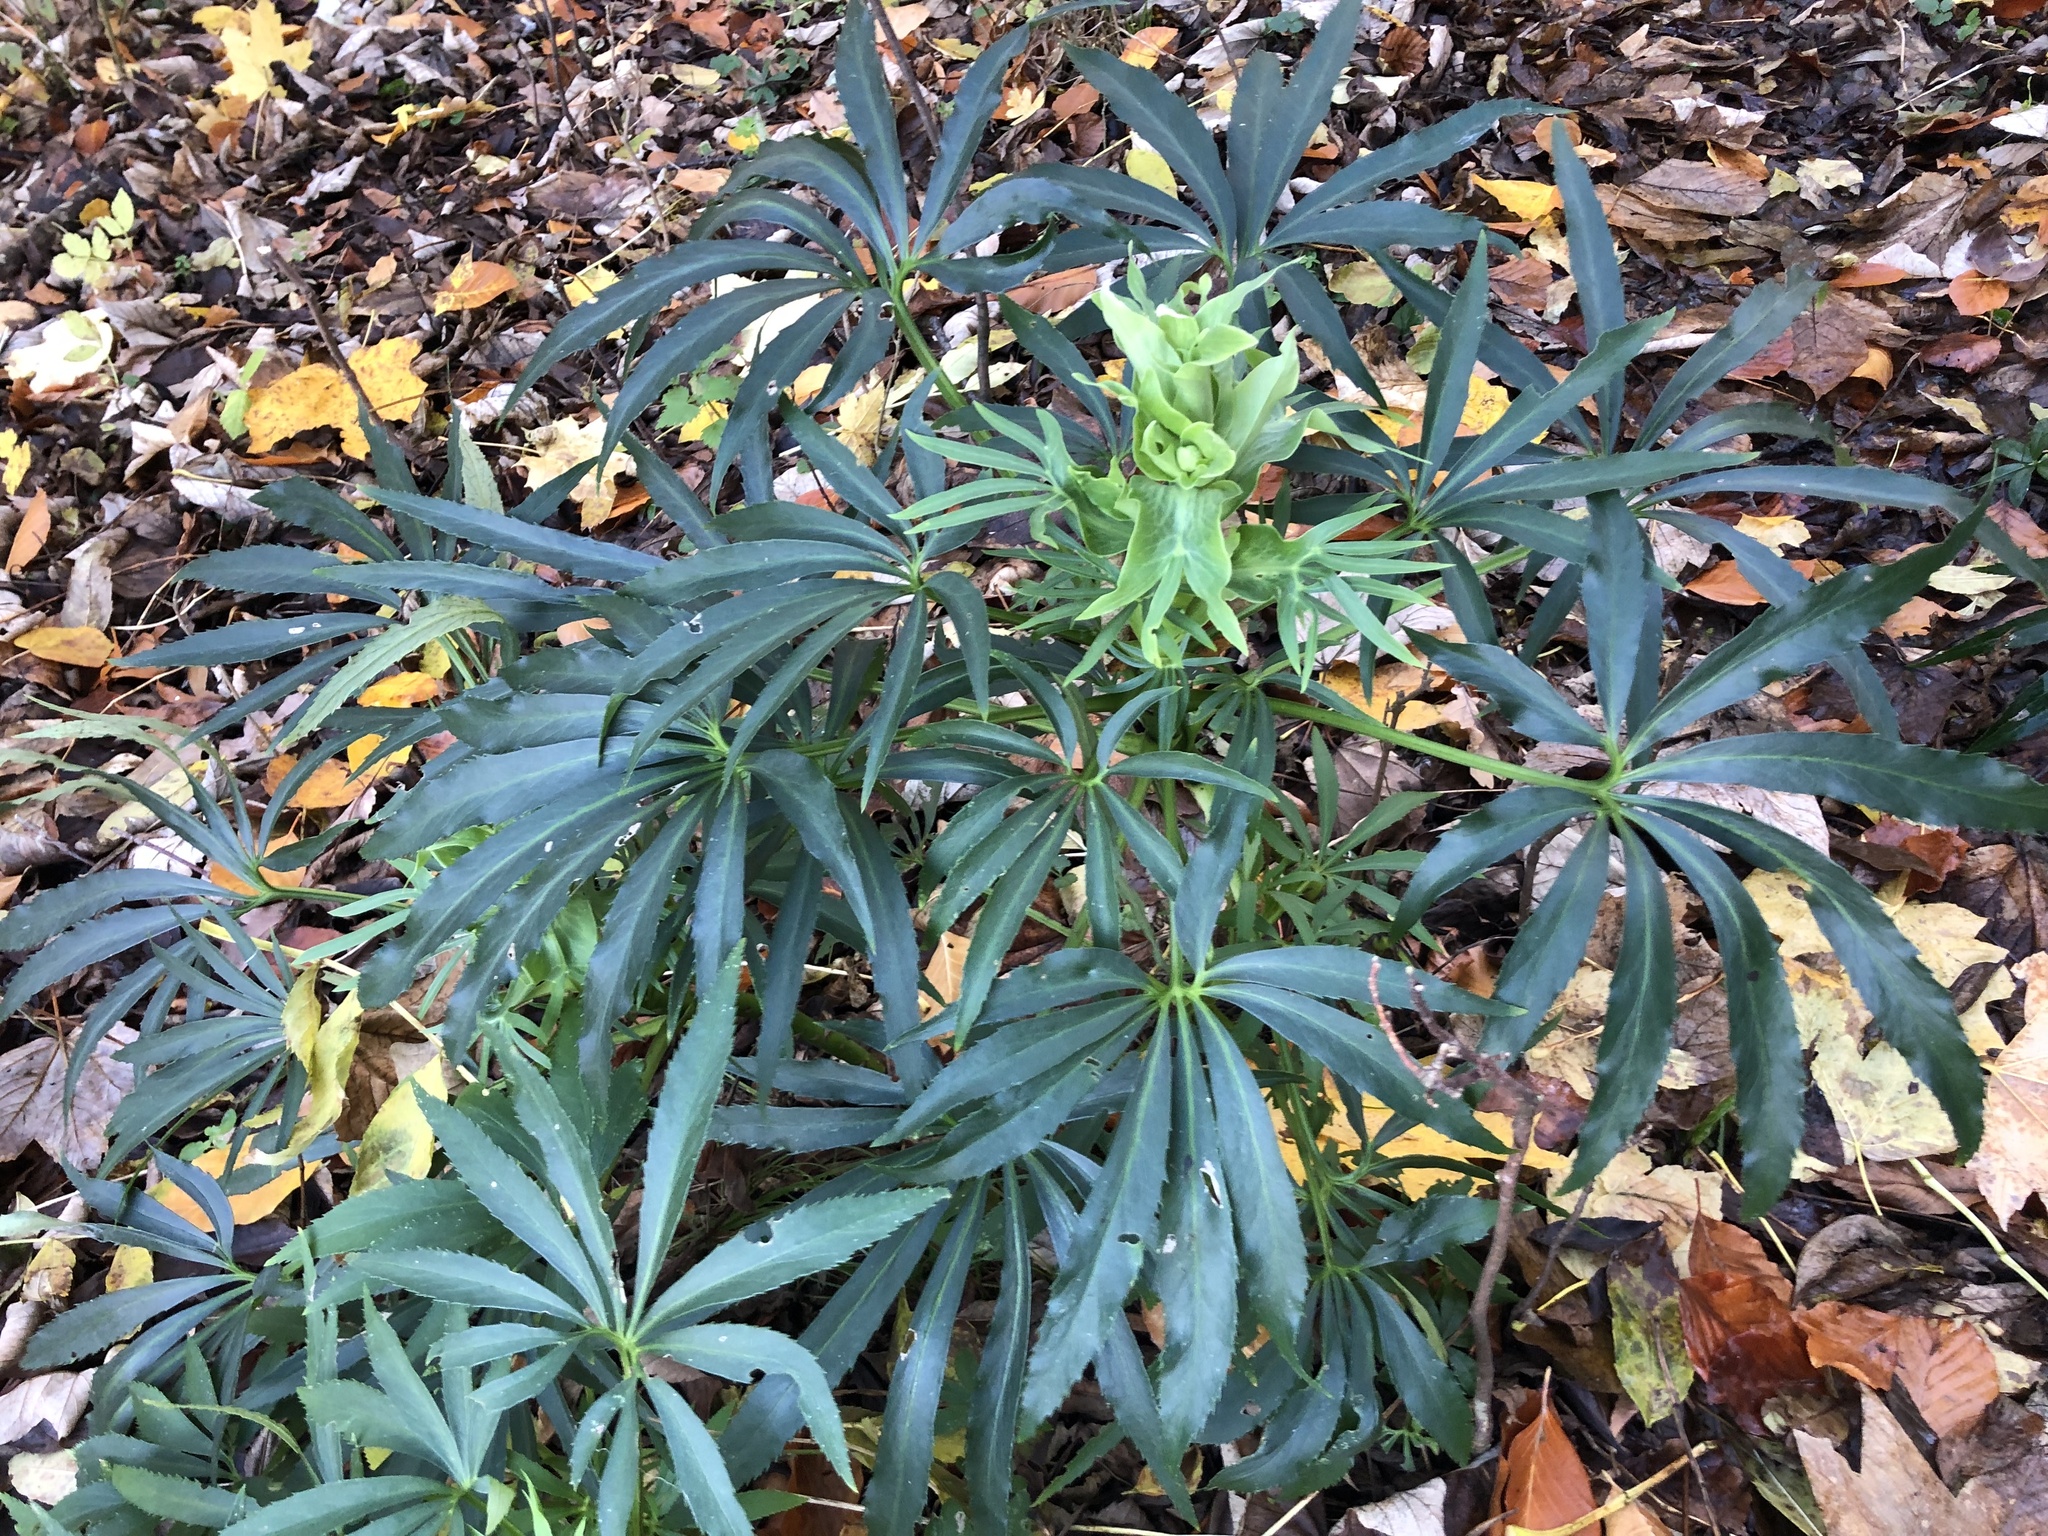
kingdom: Plantae
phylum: Tracheophyta
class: Magnoliopsida
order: Ranunculales
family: Ranunculaceae
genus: Helleborus
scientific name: Helleborus foetidus
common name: Stinking hellebore
